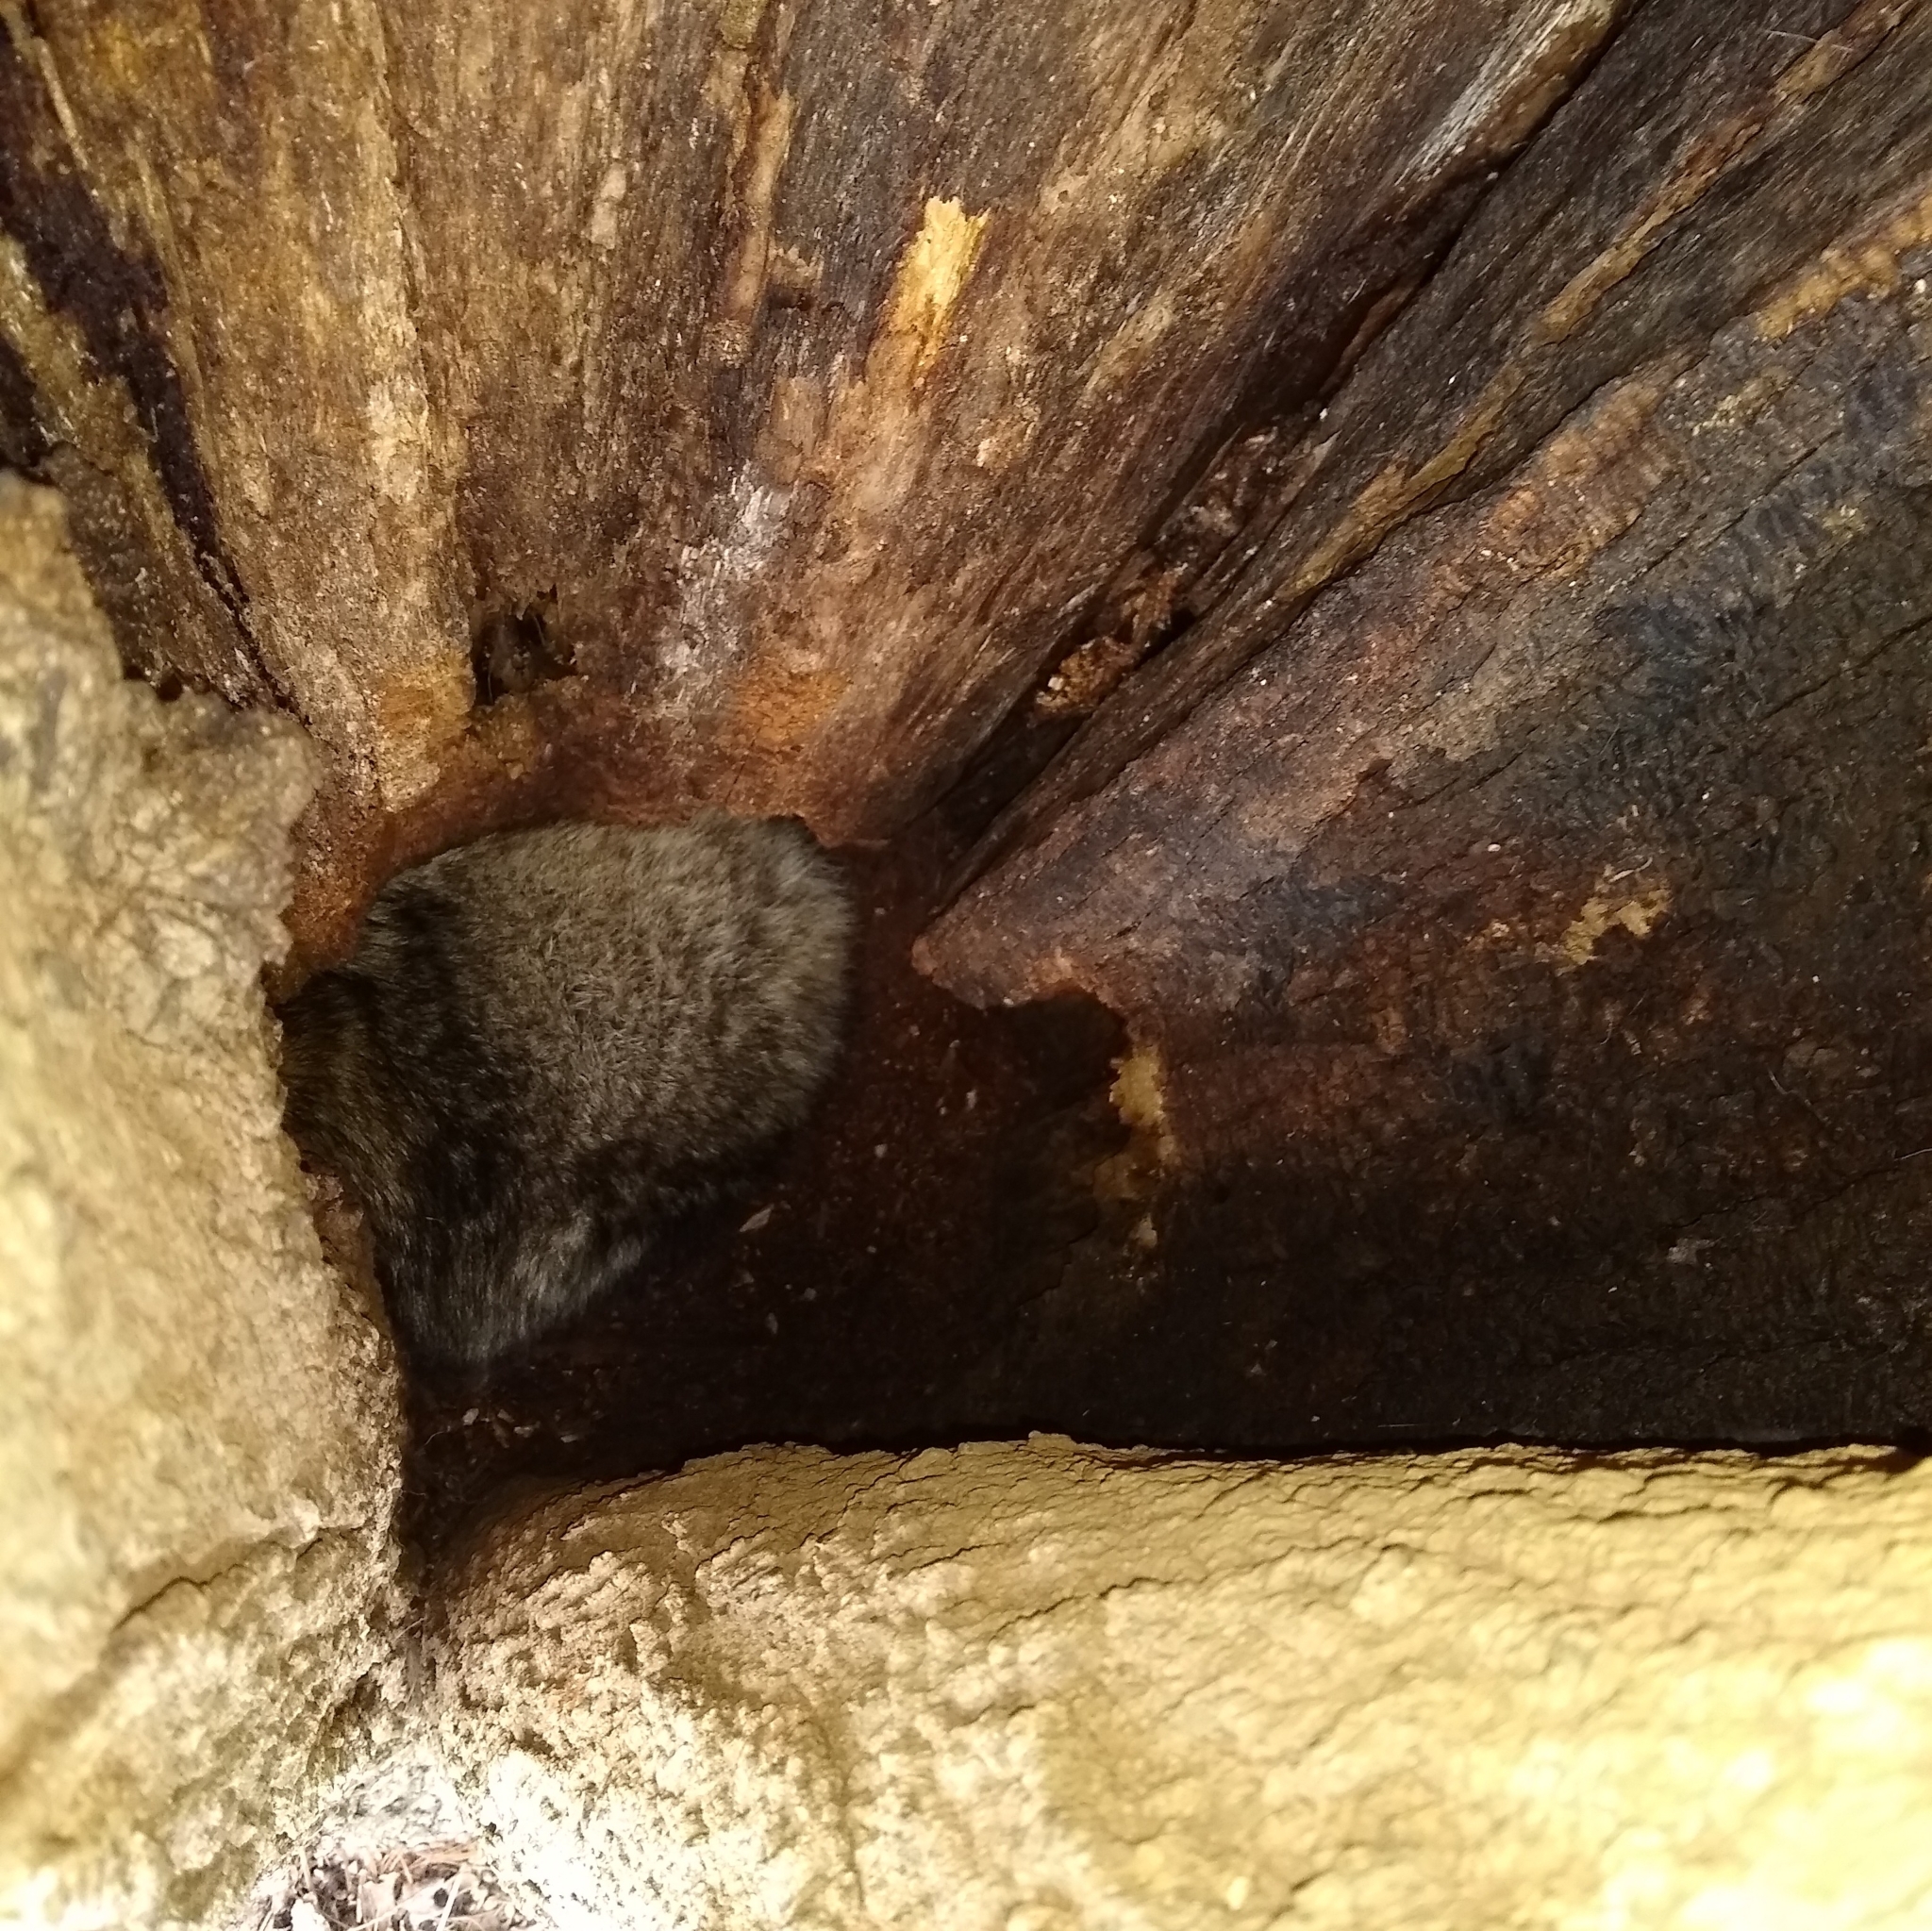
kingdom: Animalia
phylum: Chordata
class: Mammalia
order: Carnivora
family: Procyonidae
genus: Procyon
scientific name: Procyon lotor
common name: Raccoon
